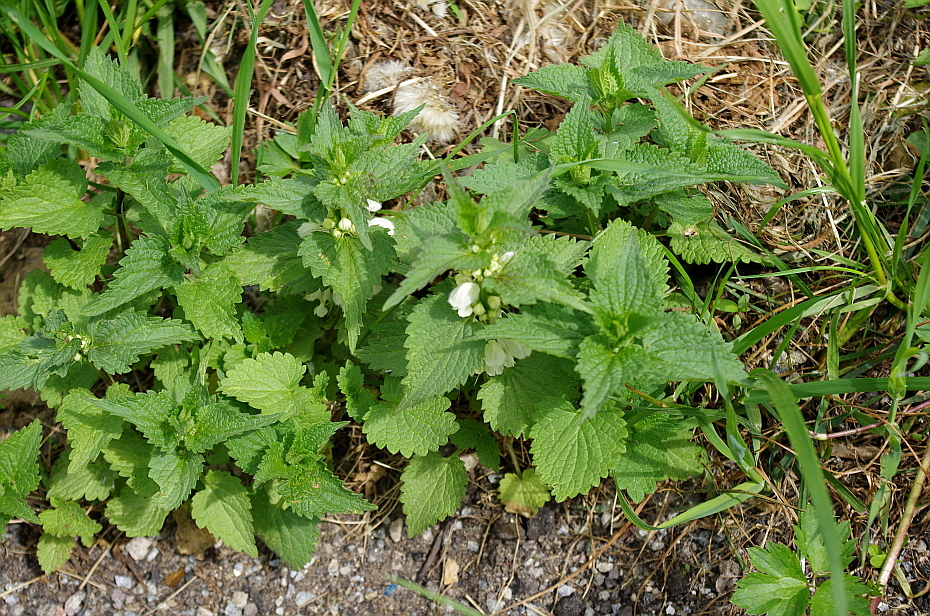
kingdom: Plantae
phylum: Tracheophyta
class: Magnoliopsida
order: Lamiales
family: Lamiaceae
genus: Lamium
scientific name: Lamium album
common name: White dead-nettle
